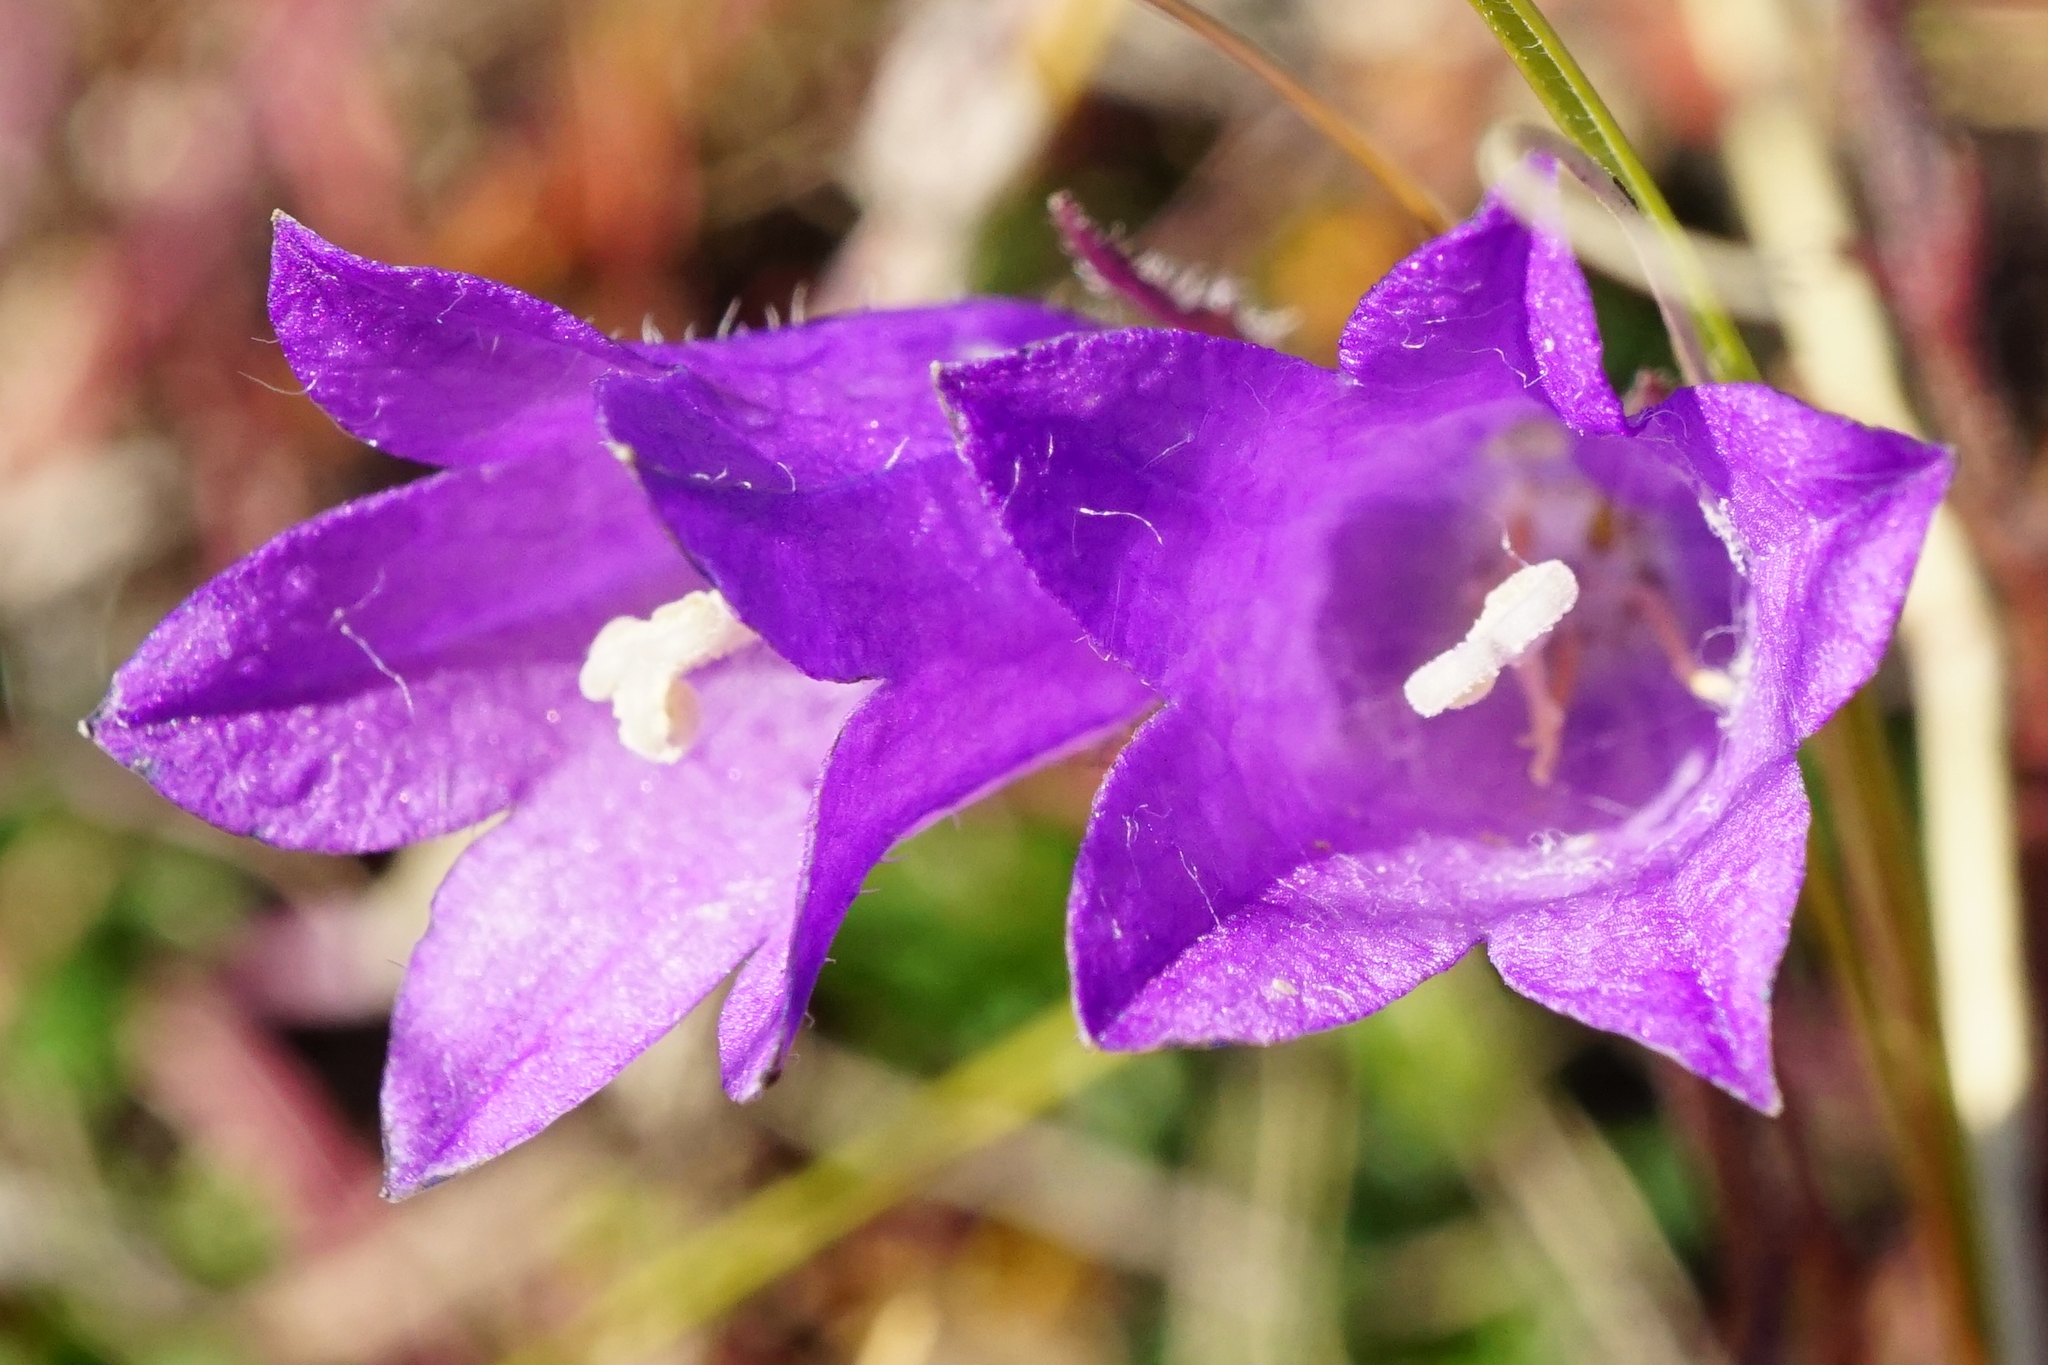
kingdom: Plantae
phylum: Tracheophyta
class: Magnoliopsida
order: Asterales
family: Campanulaceae
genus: Campanula
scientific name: Campanula sibirica
